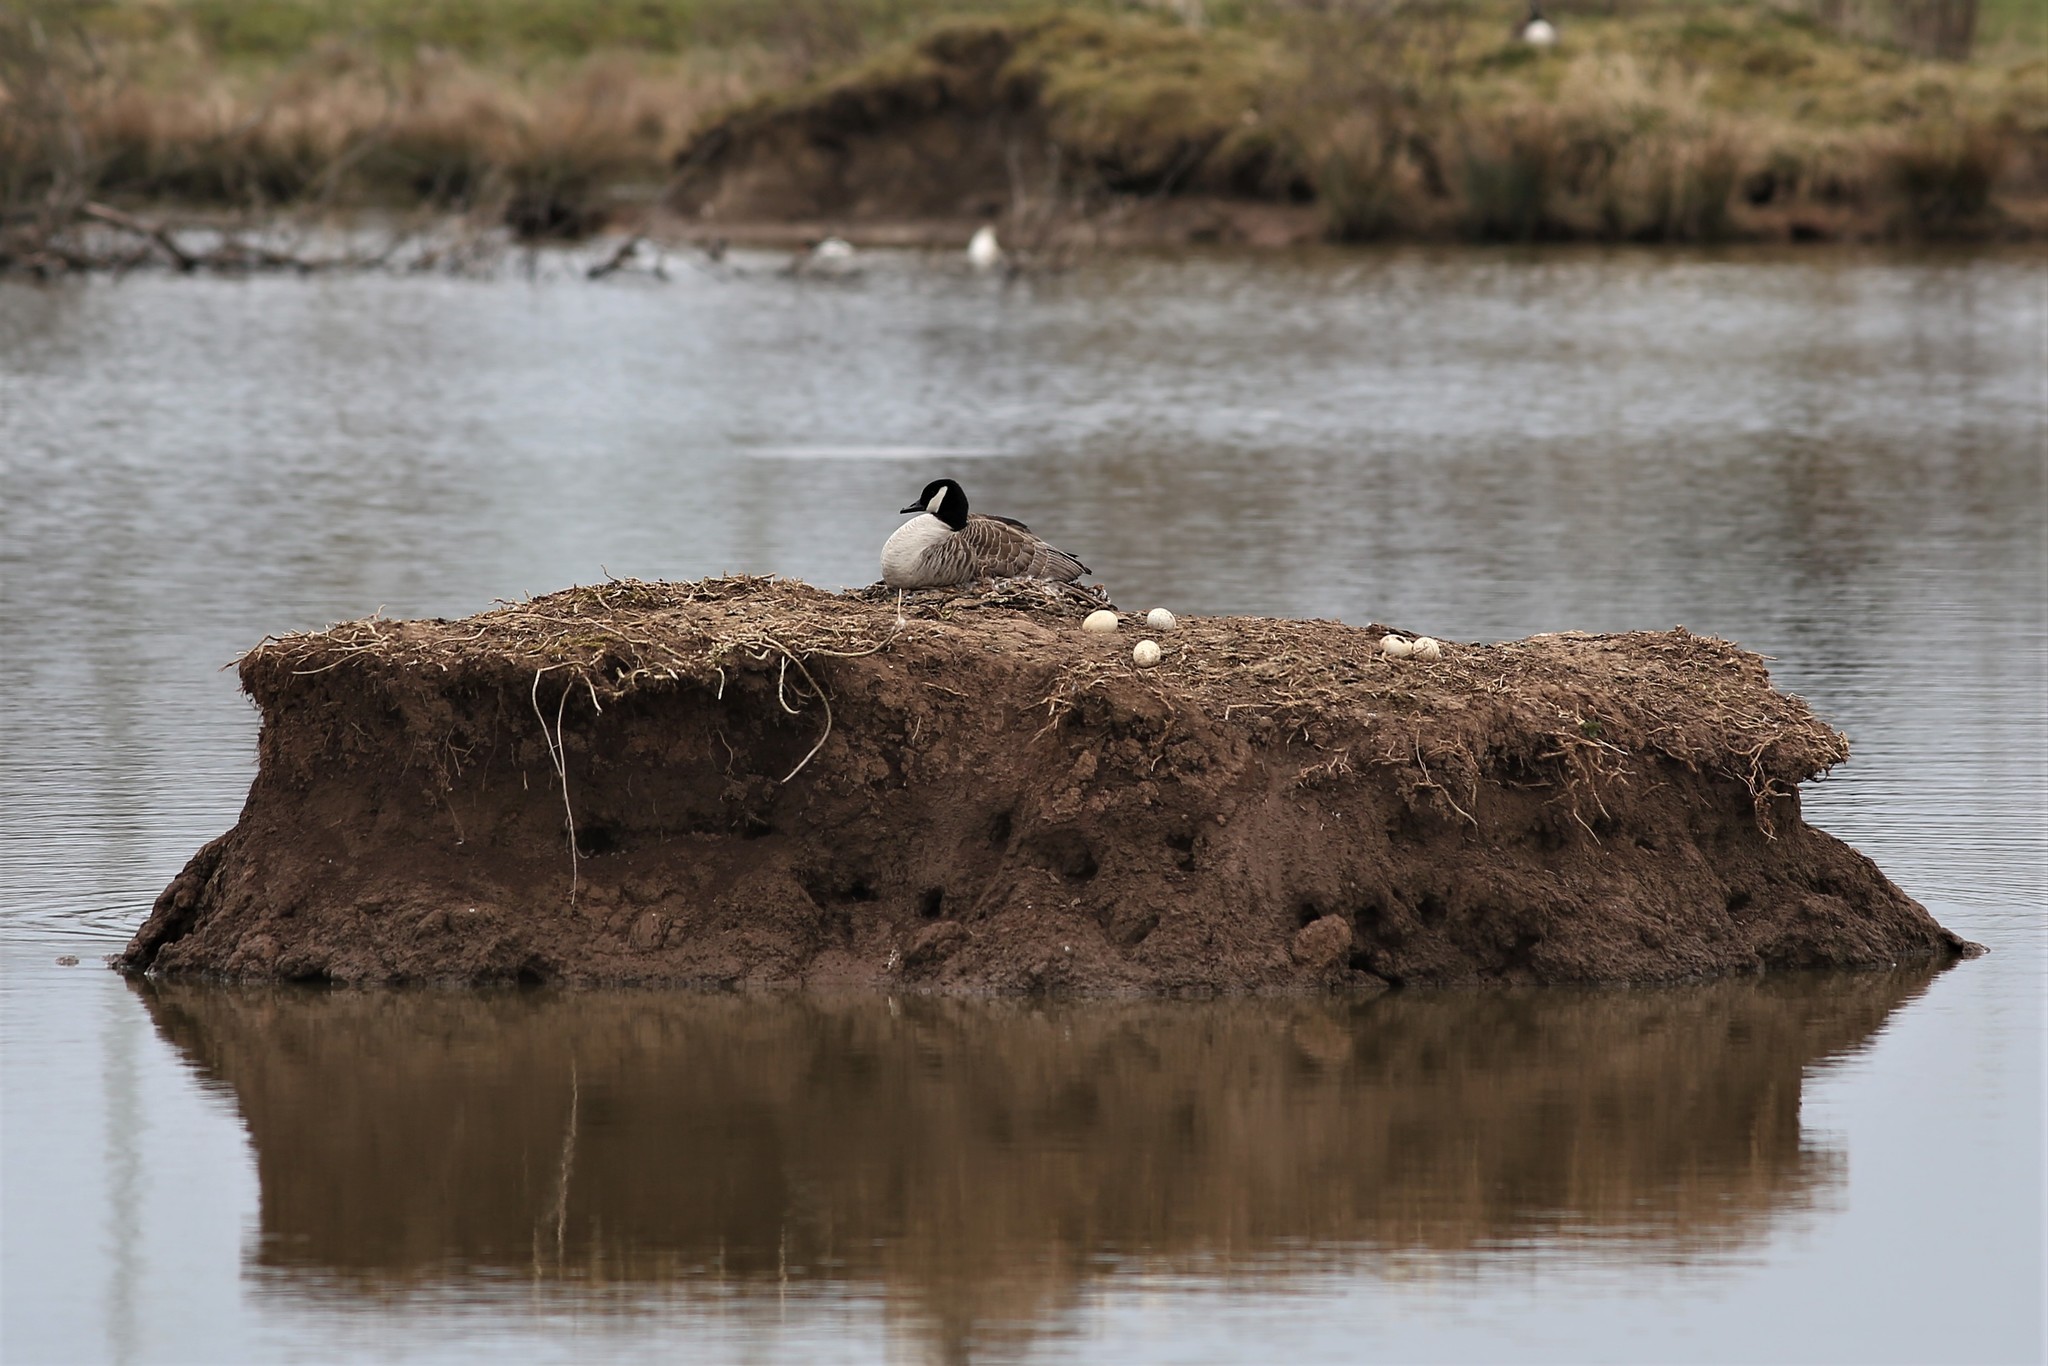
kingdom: Animalia
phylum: Chordata
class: Aves
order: Anseriformes
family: Anatidae
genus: Branta
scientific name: Branta canadensis
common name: Canada goose
